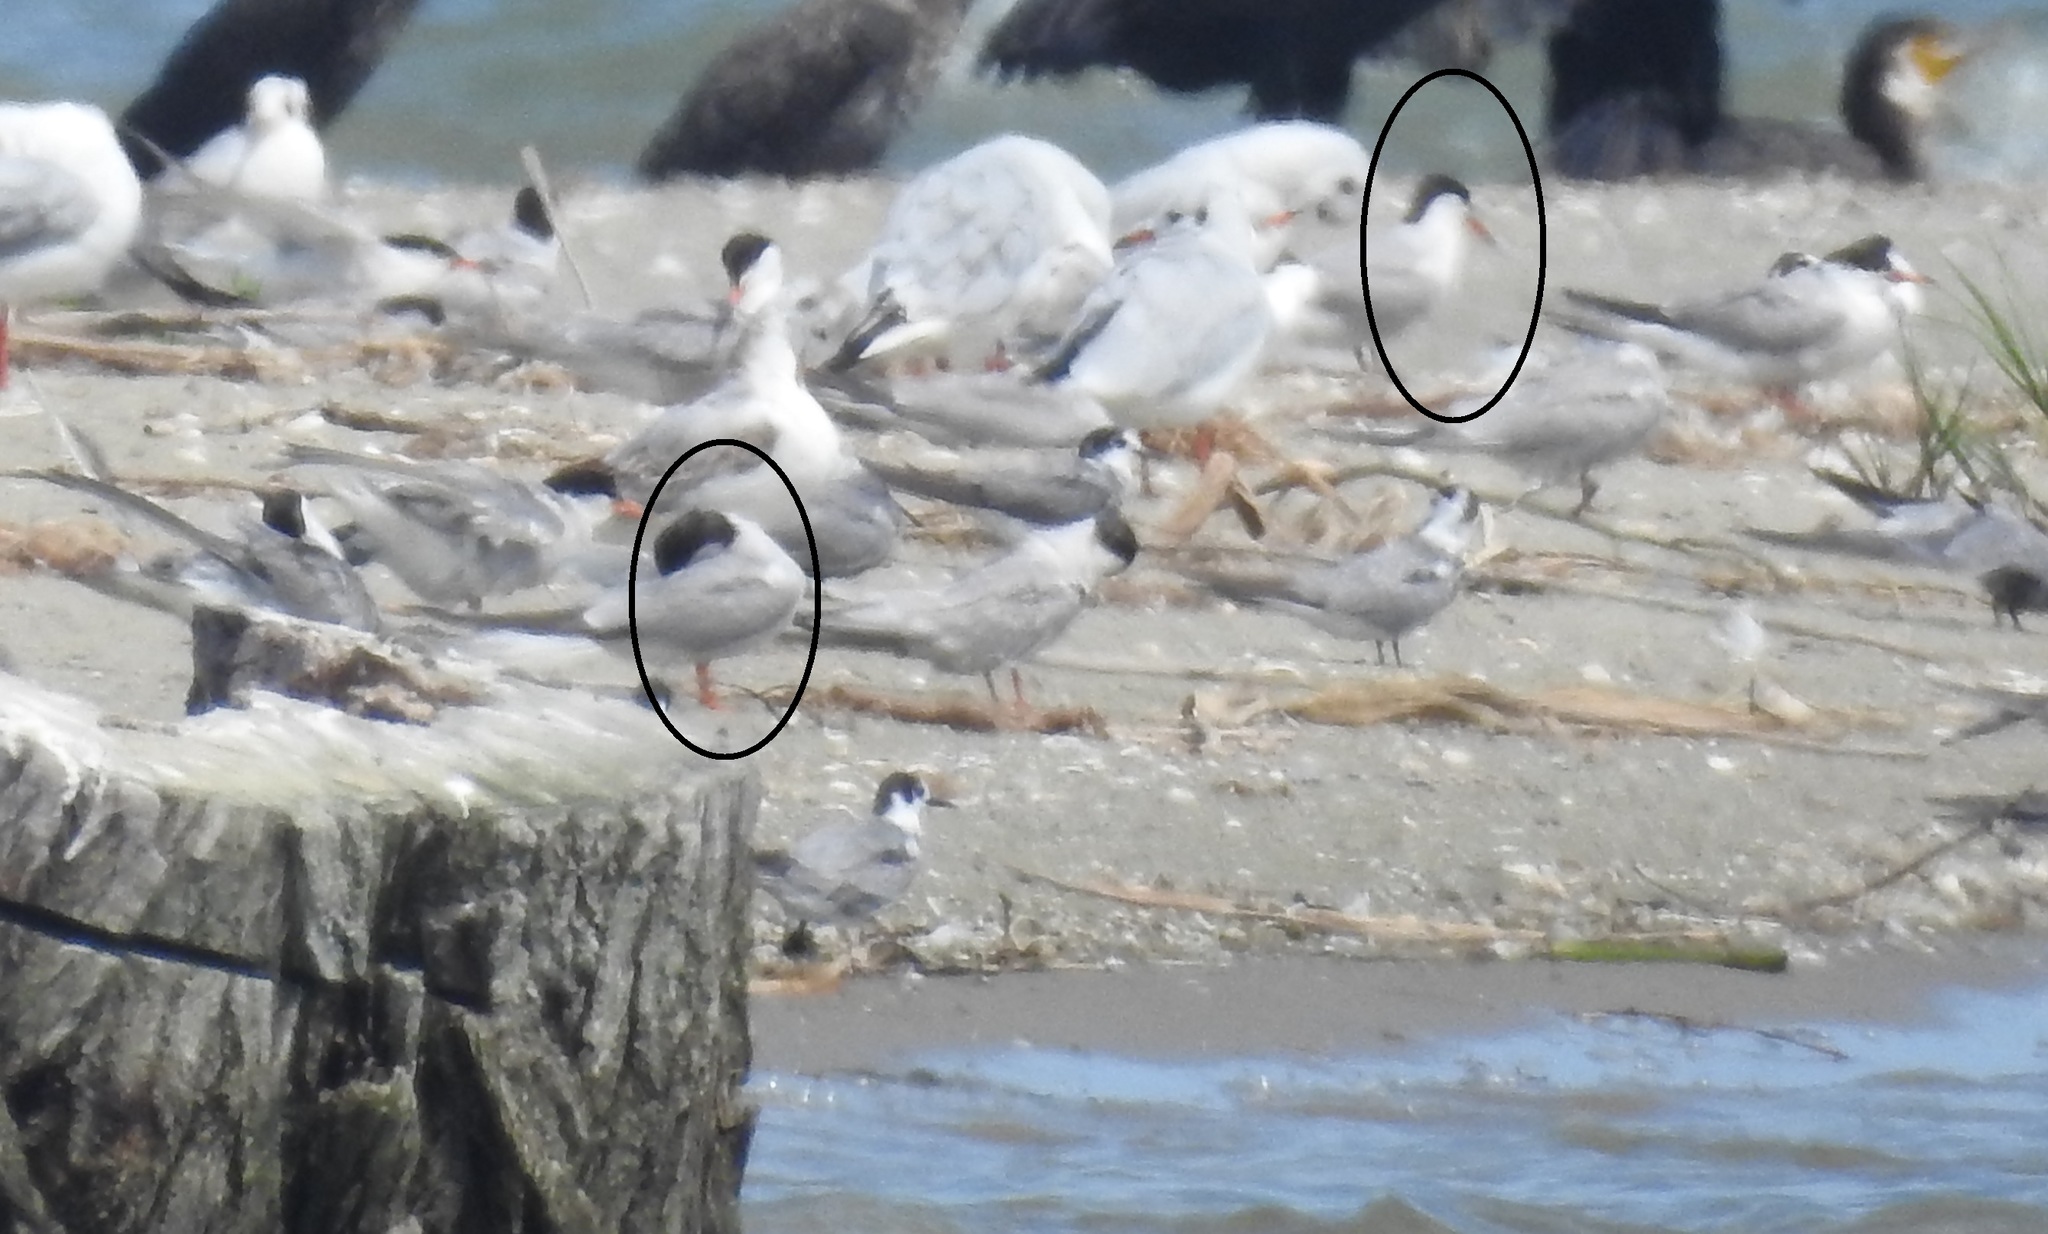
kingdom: Animalia
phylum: Chordata
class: Aves
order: Charadriiformes
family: Laridae
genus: Sterna
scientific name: Sterna hirundo
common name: Common tern
